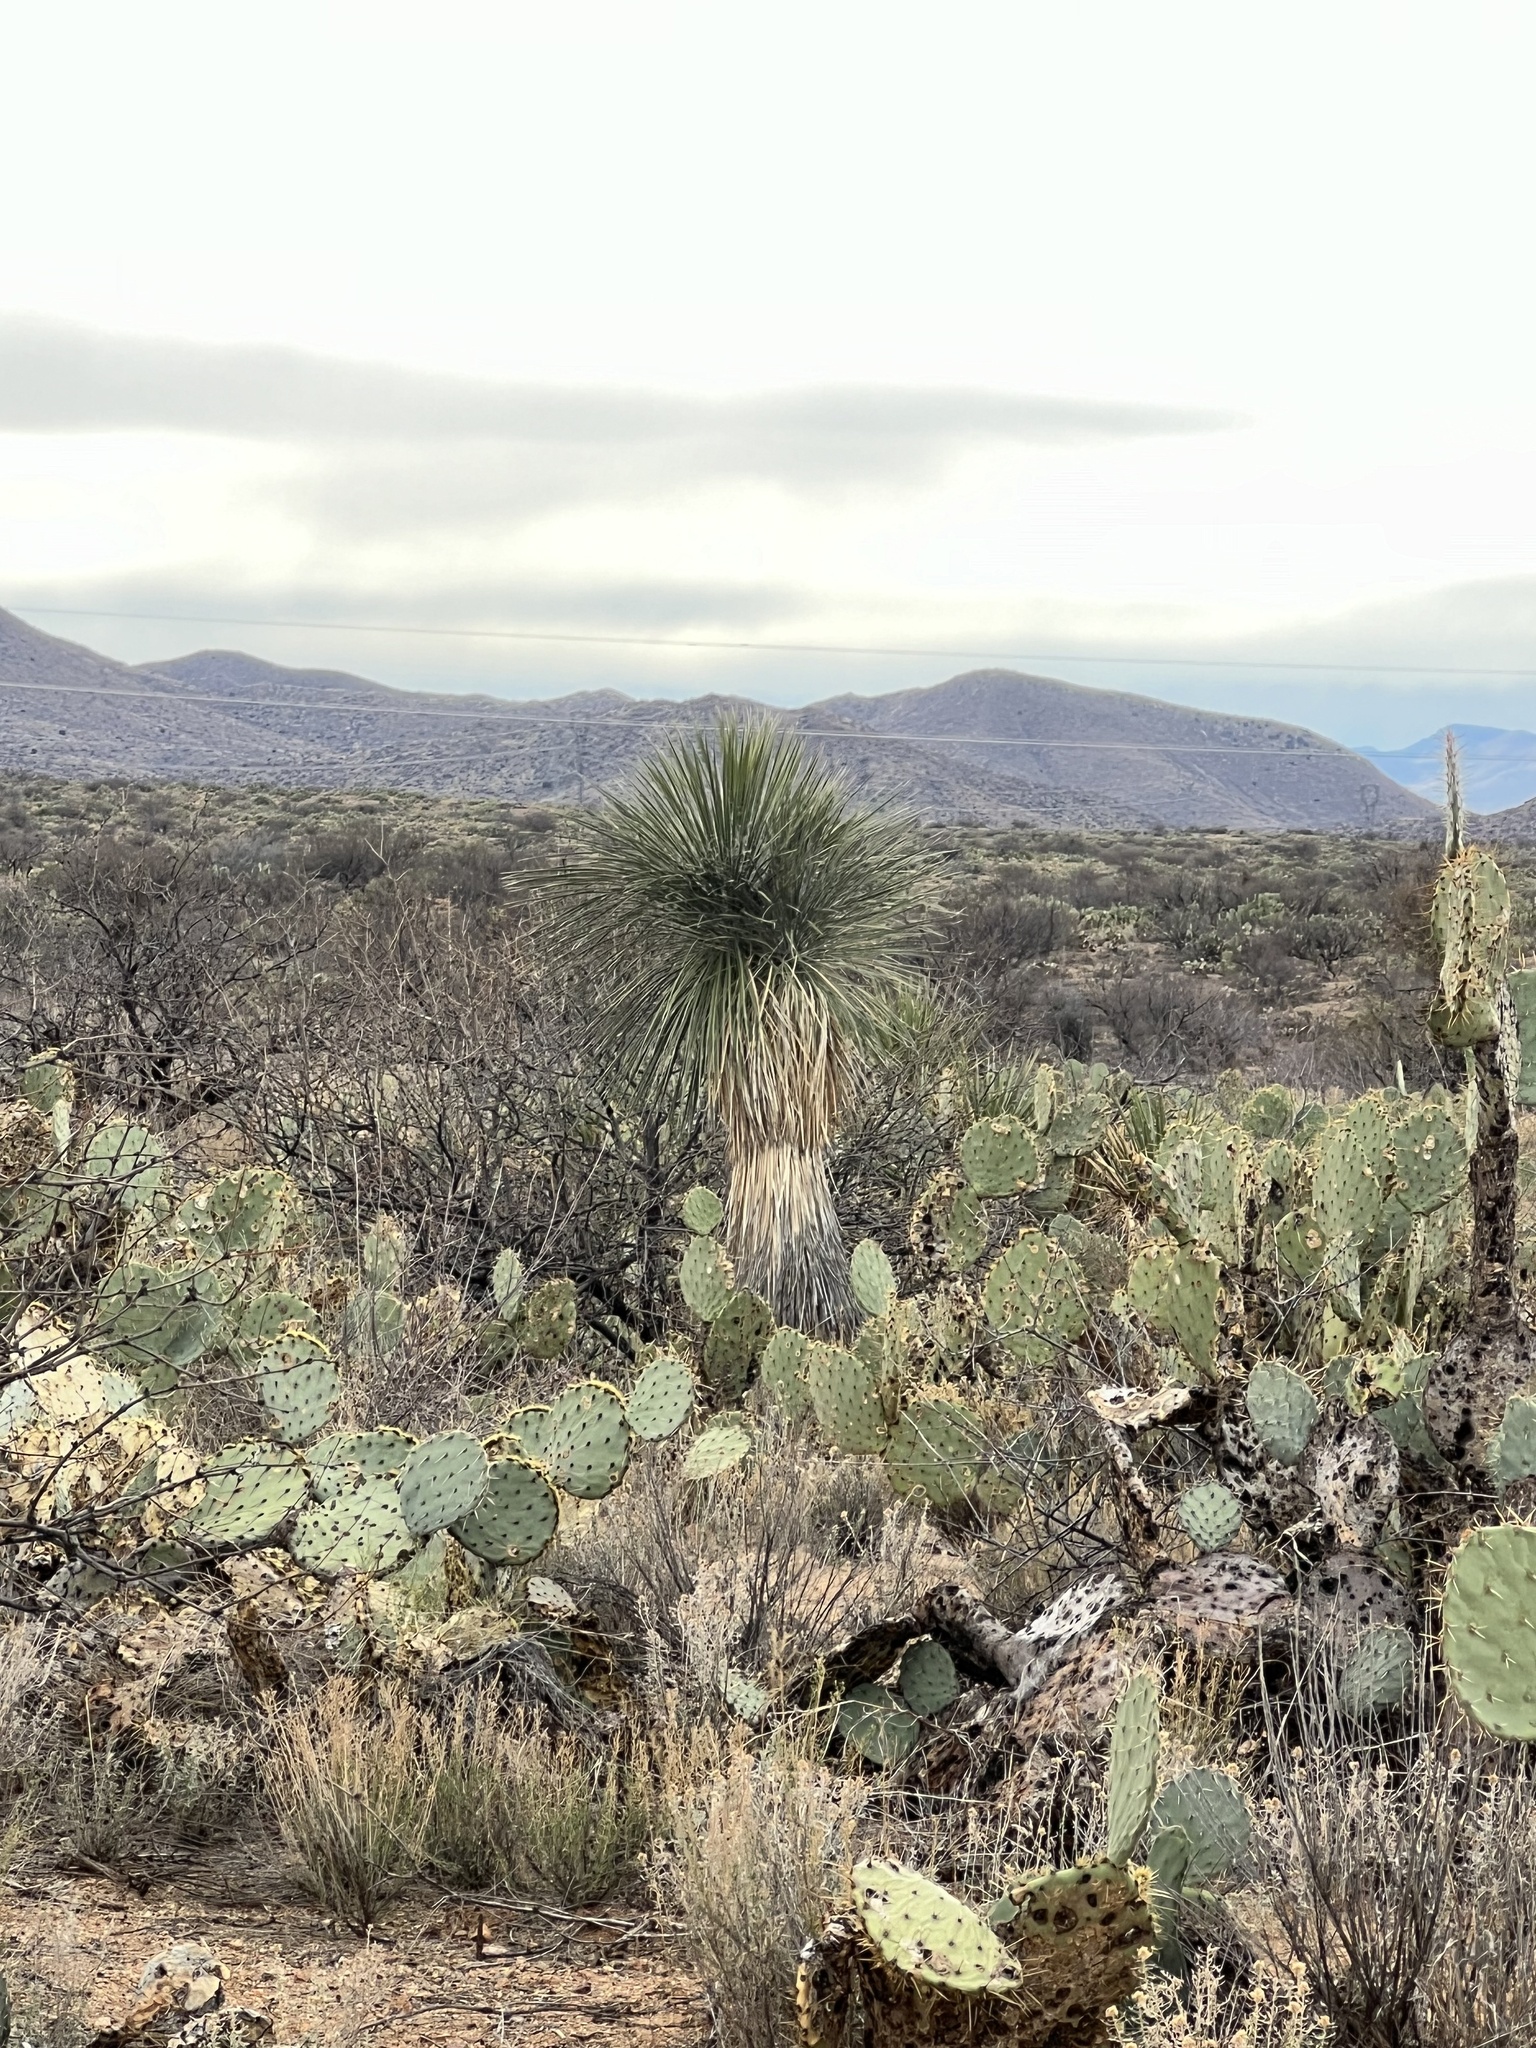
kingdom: Plantae
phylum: Tracheophyta
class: Liliopsida
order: Asparagales
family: Asparagaceae
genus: Yucca
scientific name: Yucca elata
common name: Palmella
